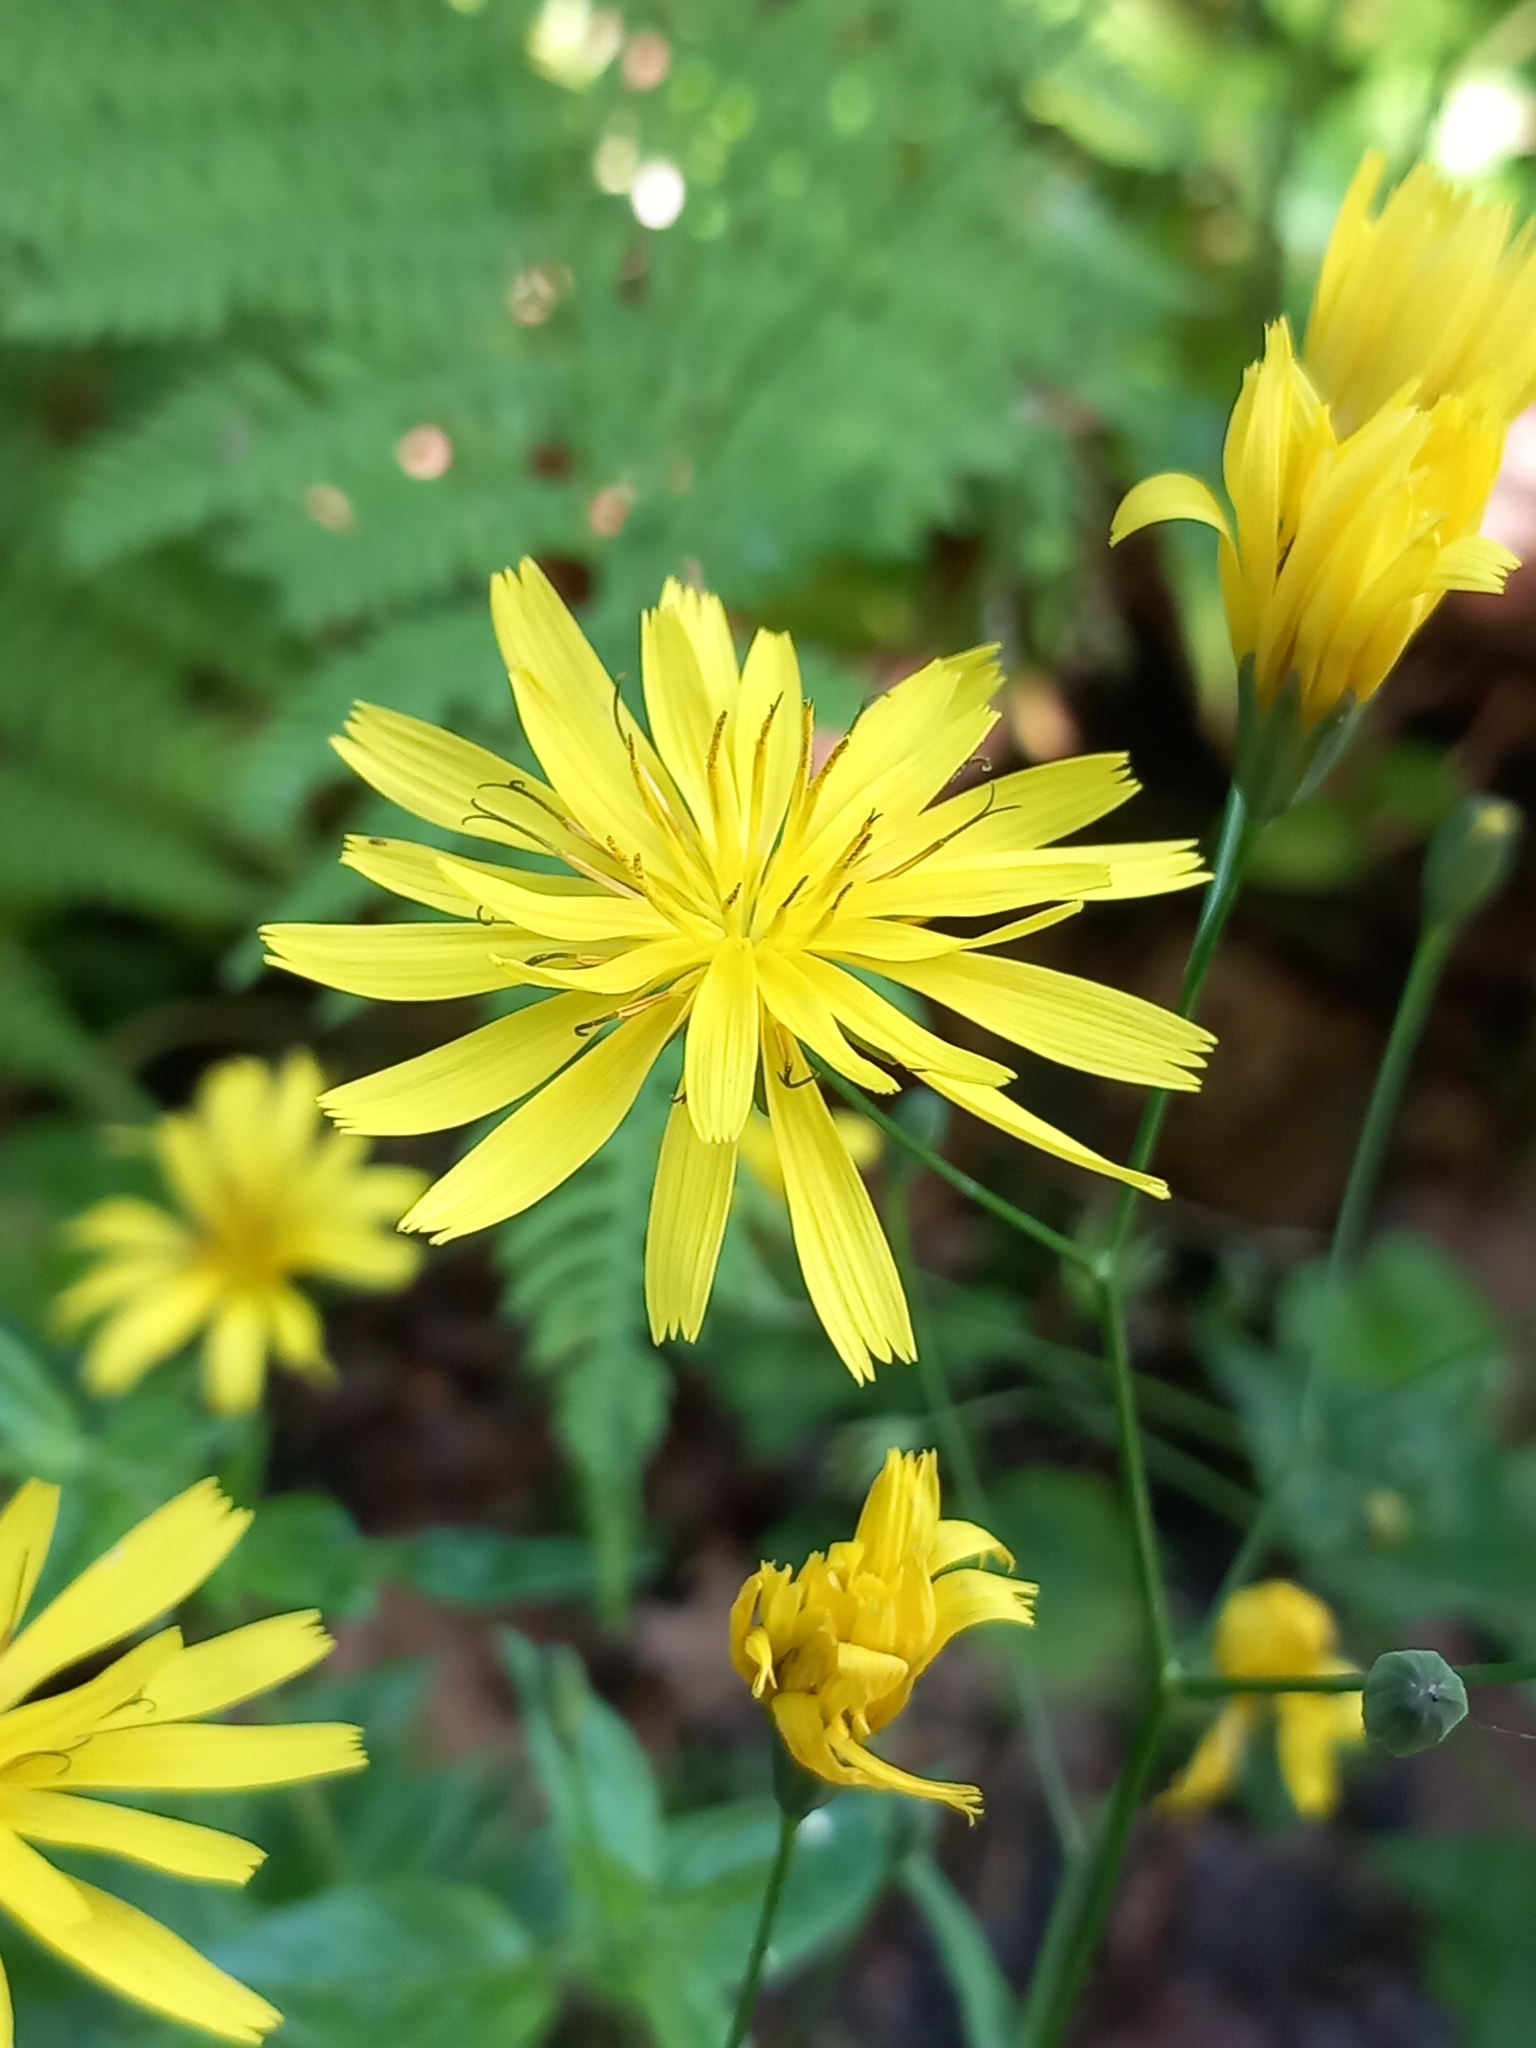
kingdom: Plantae
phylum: Tracheophyta
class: Magnoliopsida
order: Asterales
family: Asteraceae
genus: Lapsana
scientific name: Lapsana communis
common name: Nipplewort
